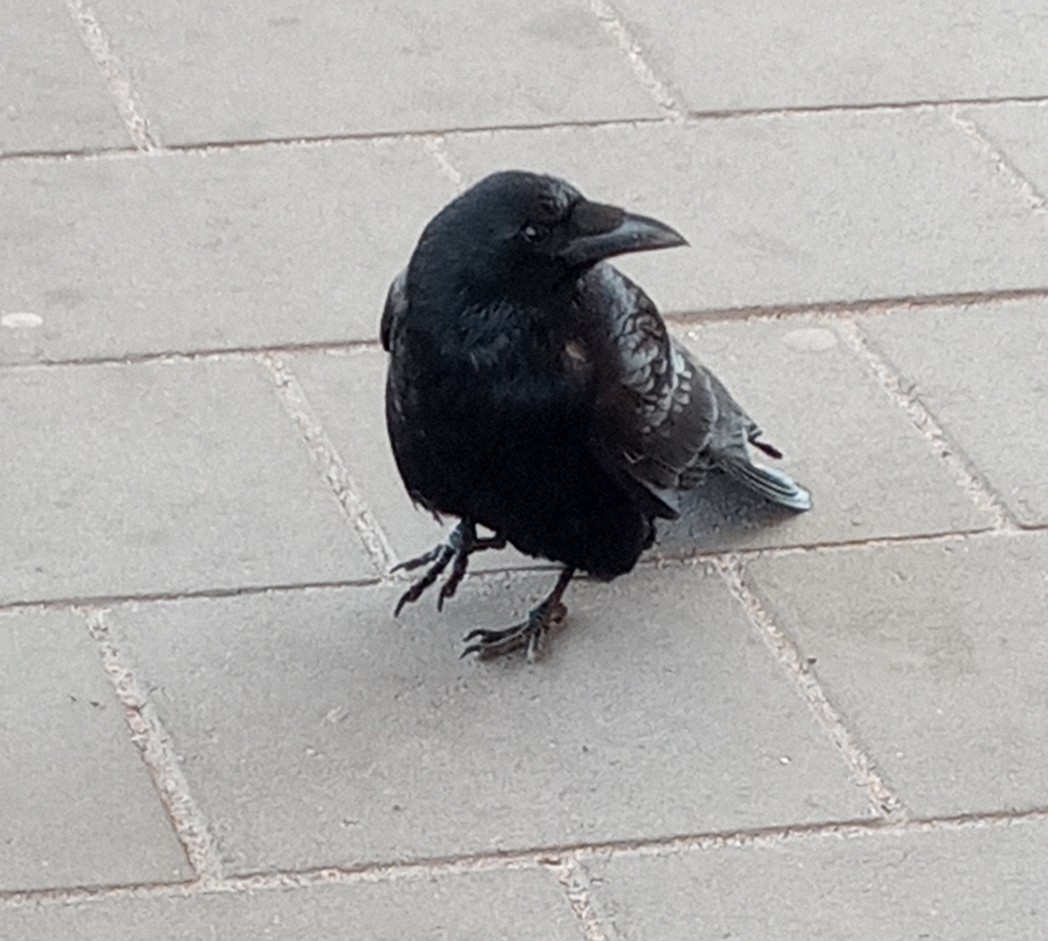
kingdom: Animalia
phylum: Chordata
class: Aves
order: Passeriformes
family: Corvidae
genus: Corvus
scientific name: Corvus corone
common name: Carrion crow
